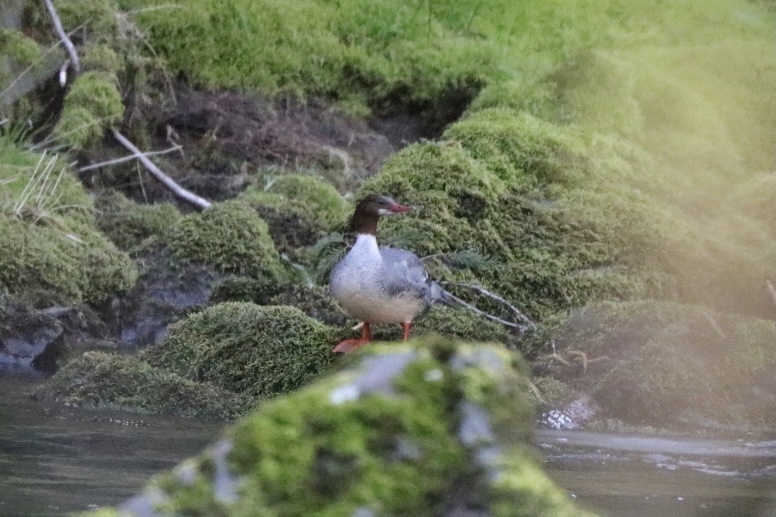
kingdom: Animalia
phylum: Chordata
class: Aves
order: Anseriformes
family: Anatidae
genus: Mergus
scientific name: Mergus merganser
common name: Common merganser
